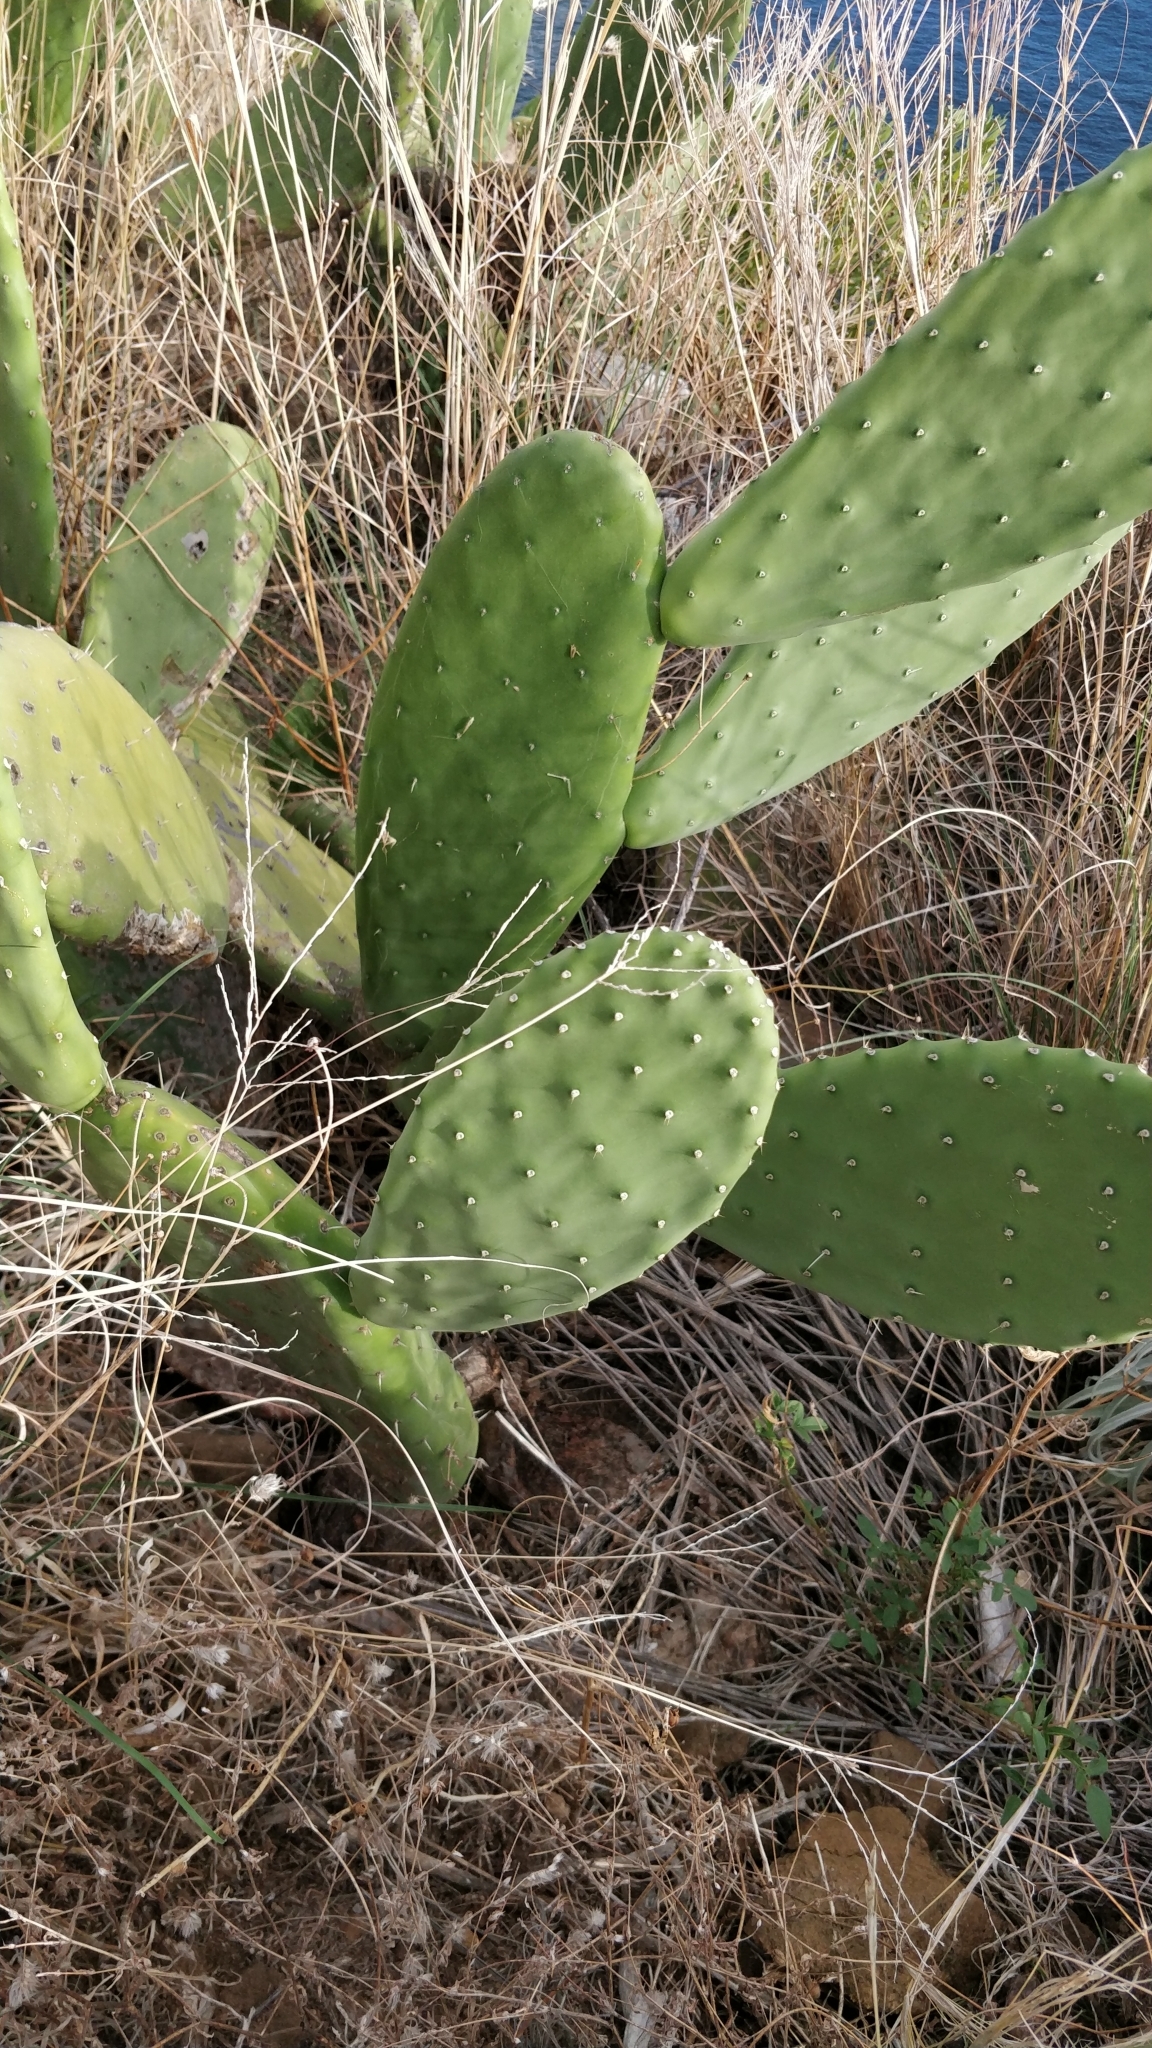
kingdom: Plantae
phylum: Tracheophyta
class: Magnoliopsida
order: Caryophyllales
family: Cactaceae
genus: Opuntia
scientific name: Opuntia ficus-indica
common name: Barbary fig
